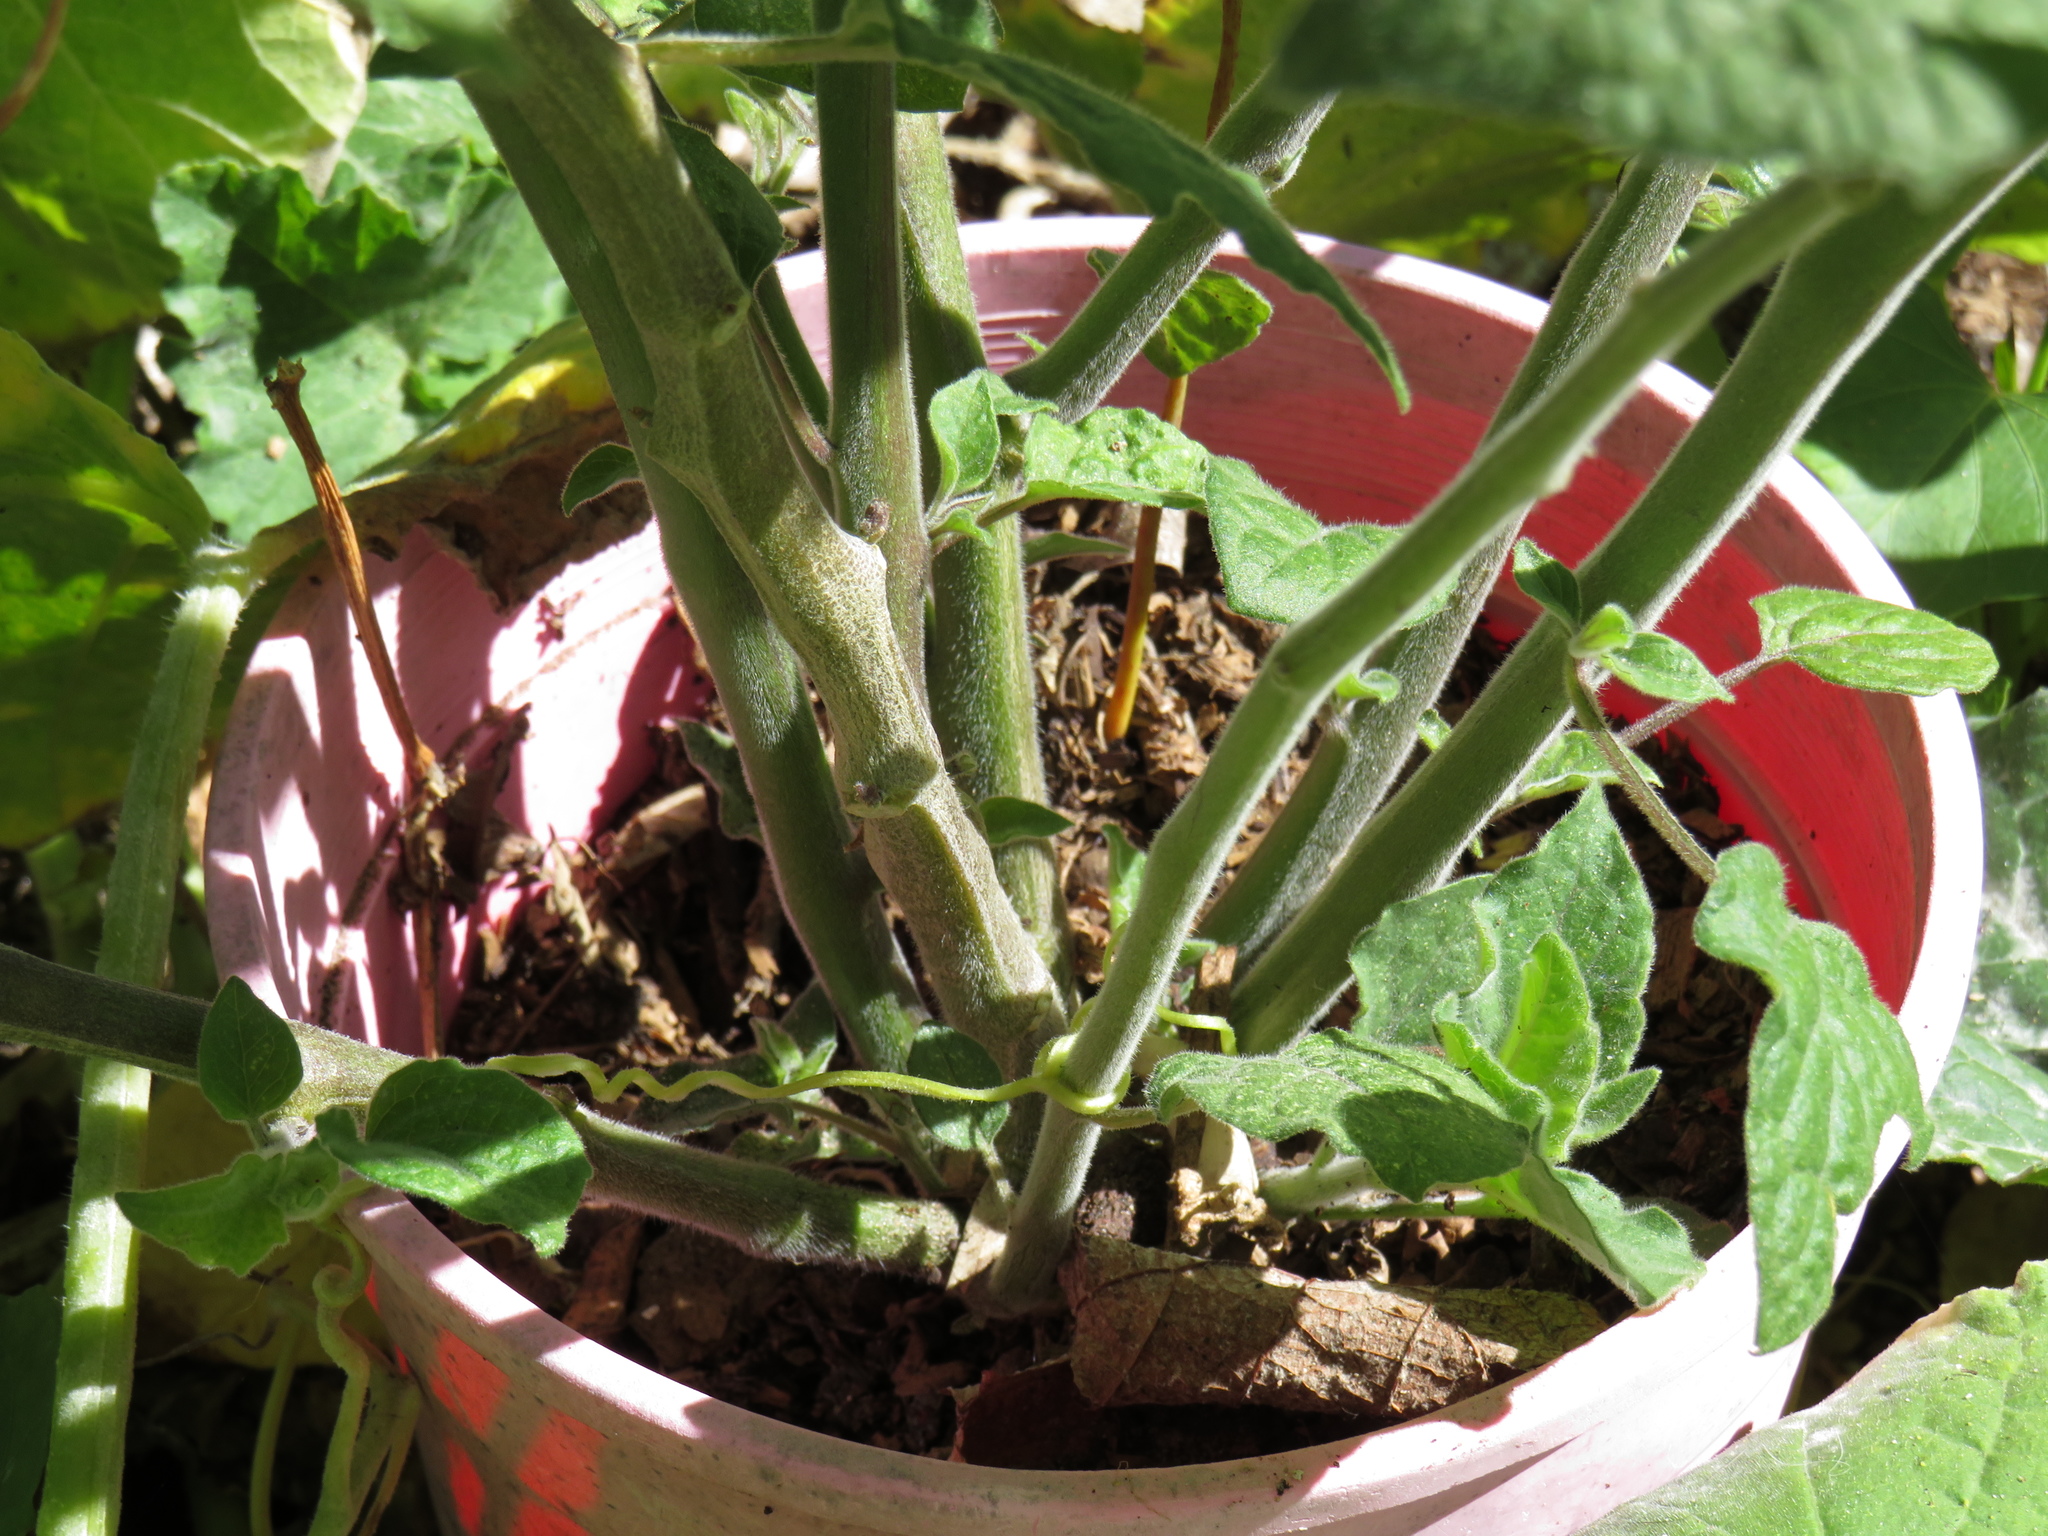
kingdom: Plantae
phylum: Tracheophyta
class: Magnoliopsida
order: Solanales
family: Solanaceae
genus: Physalis
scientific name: Physalis peruviana
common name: Cape-gooseberry
